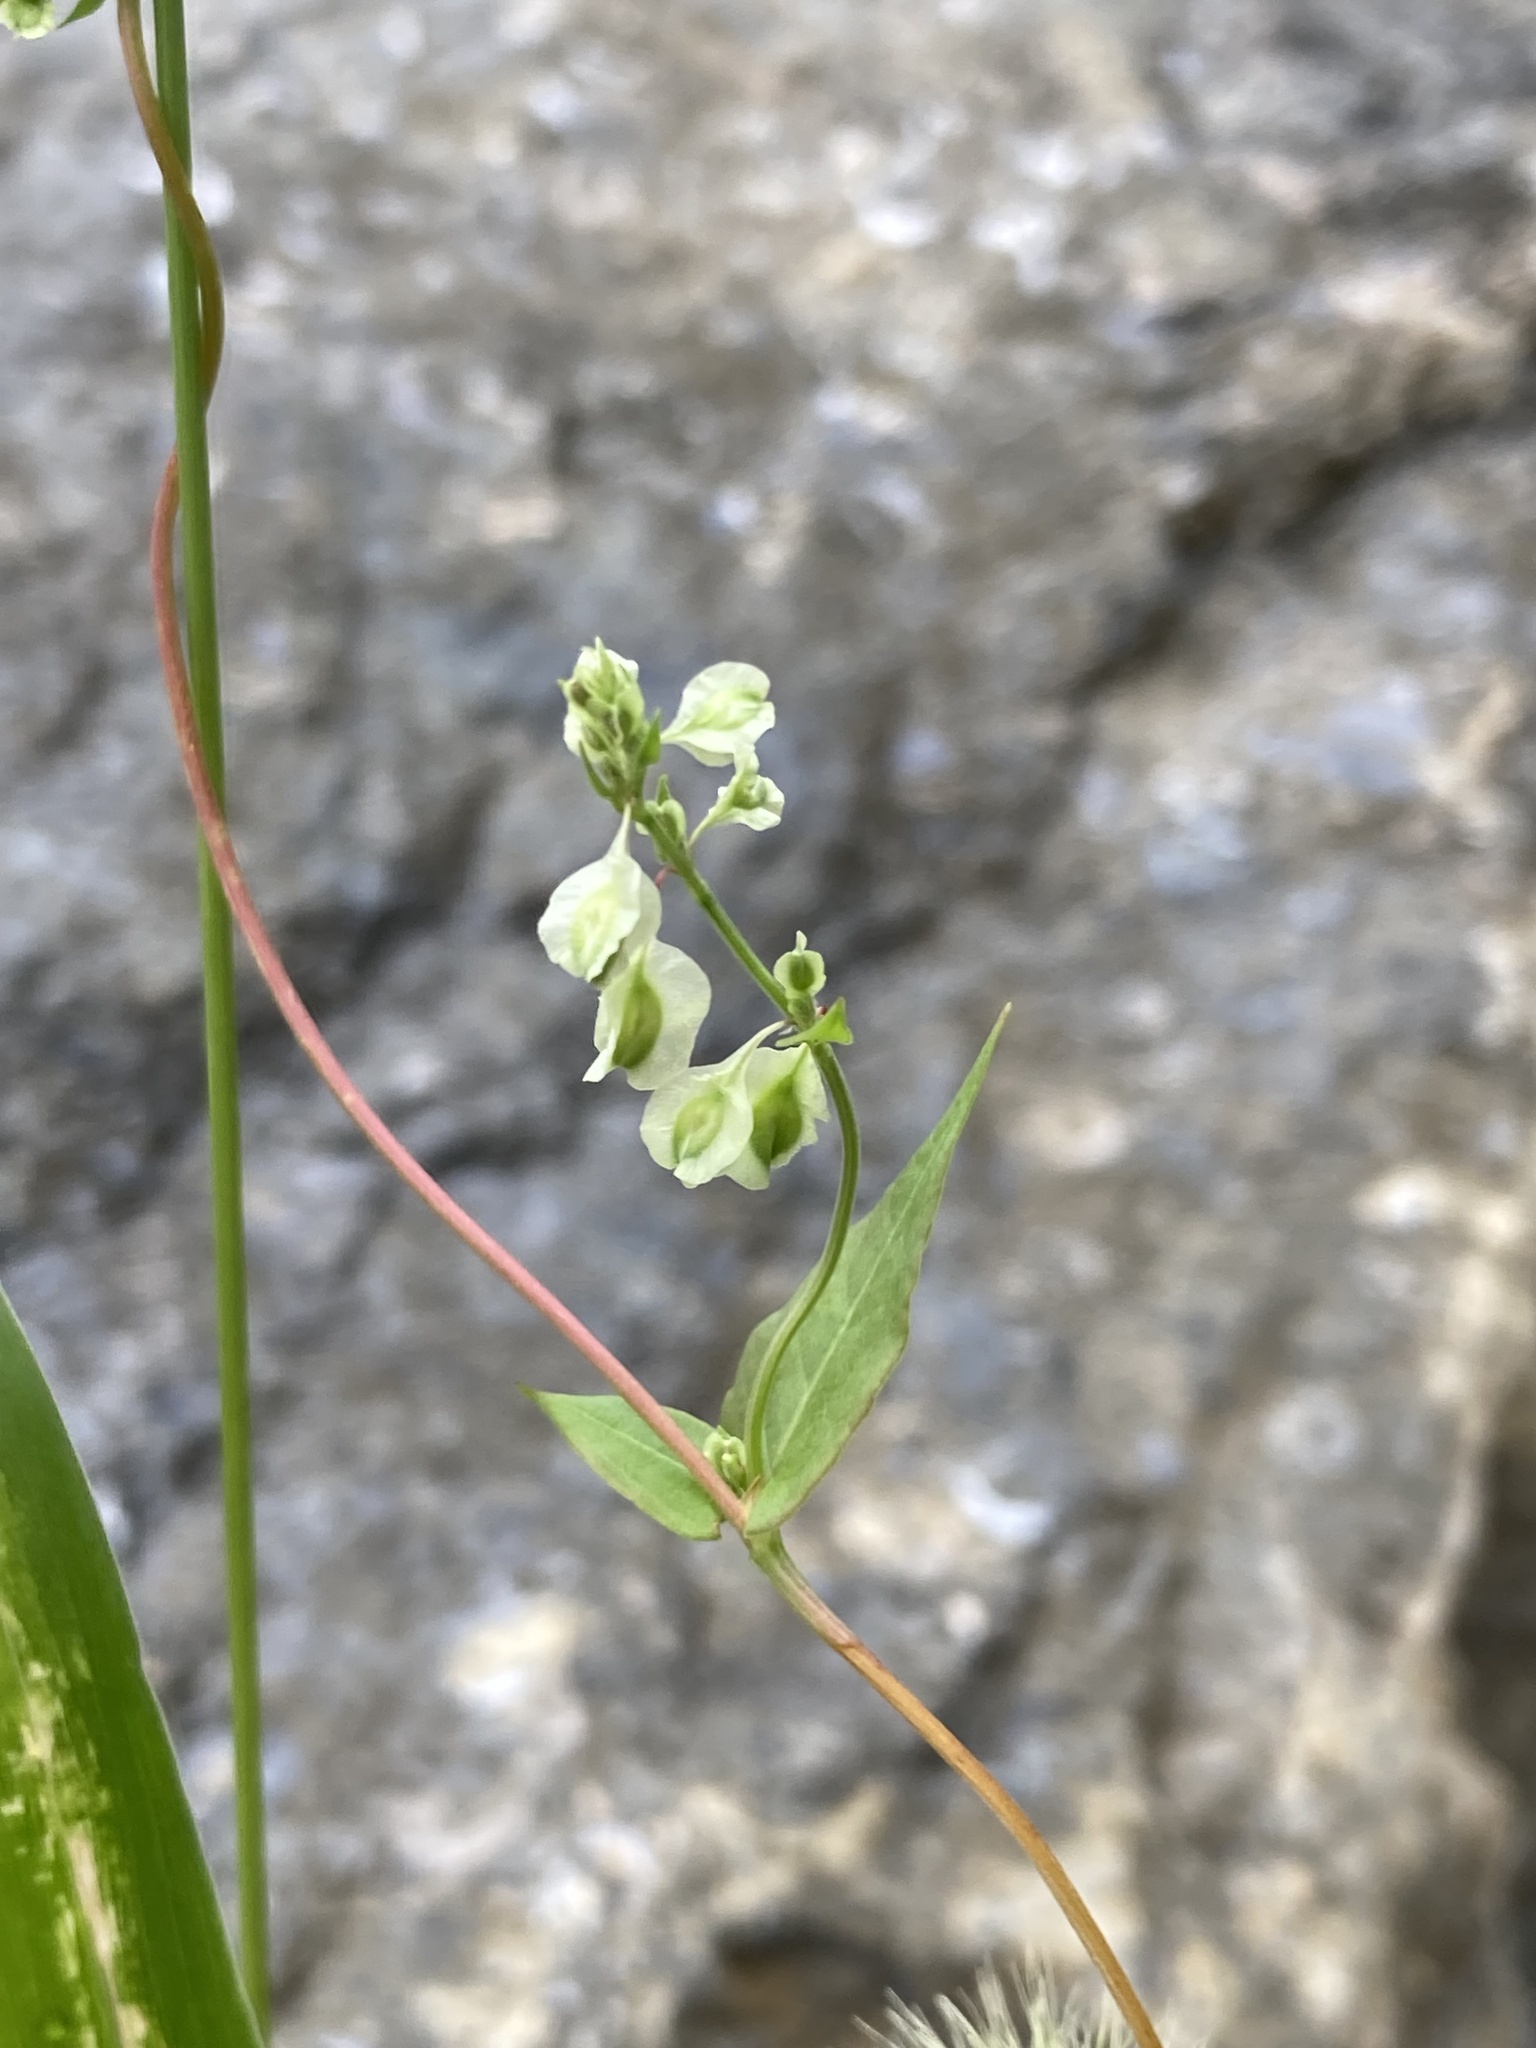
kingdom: Plantae
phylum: Tracheophyta
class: Magnoliopsida
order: Caryophyllales
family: Polygonaceae
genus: Fallopia
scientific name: Fallopia scandens
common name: Climbing false buckwheat
